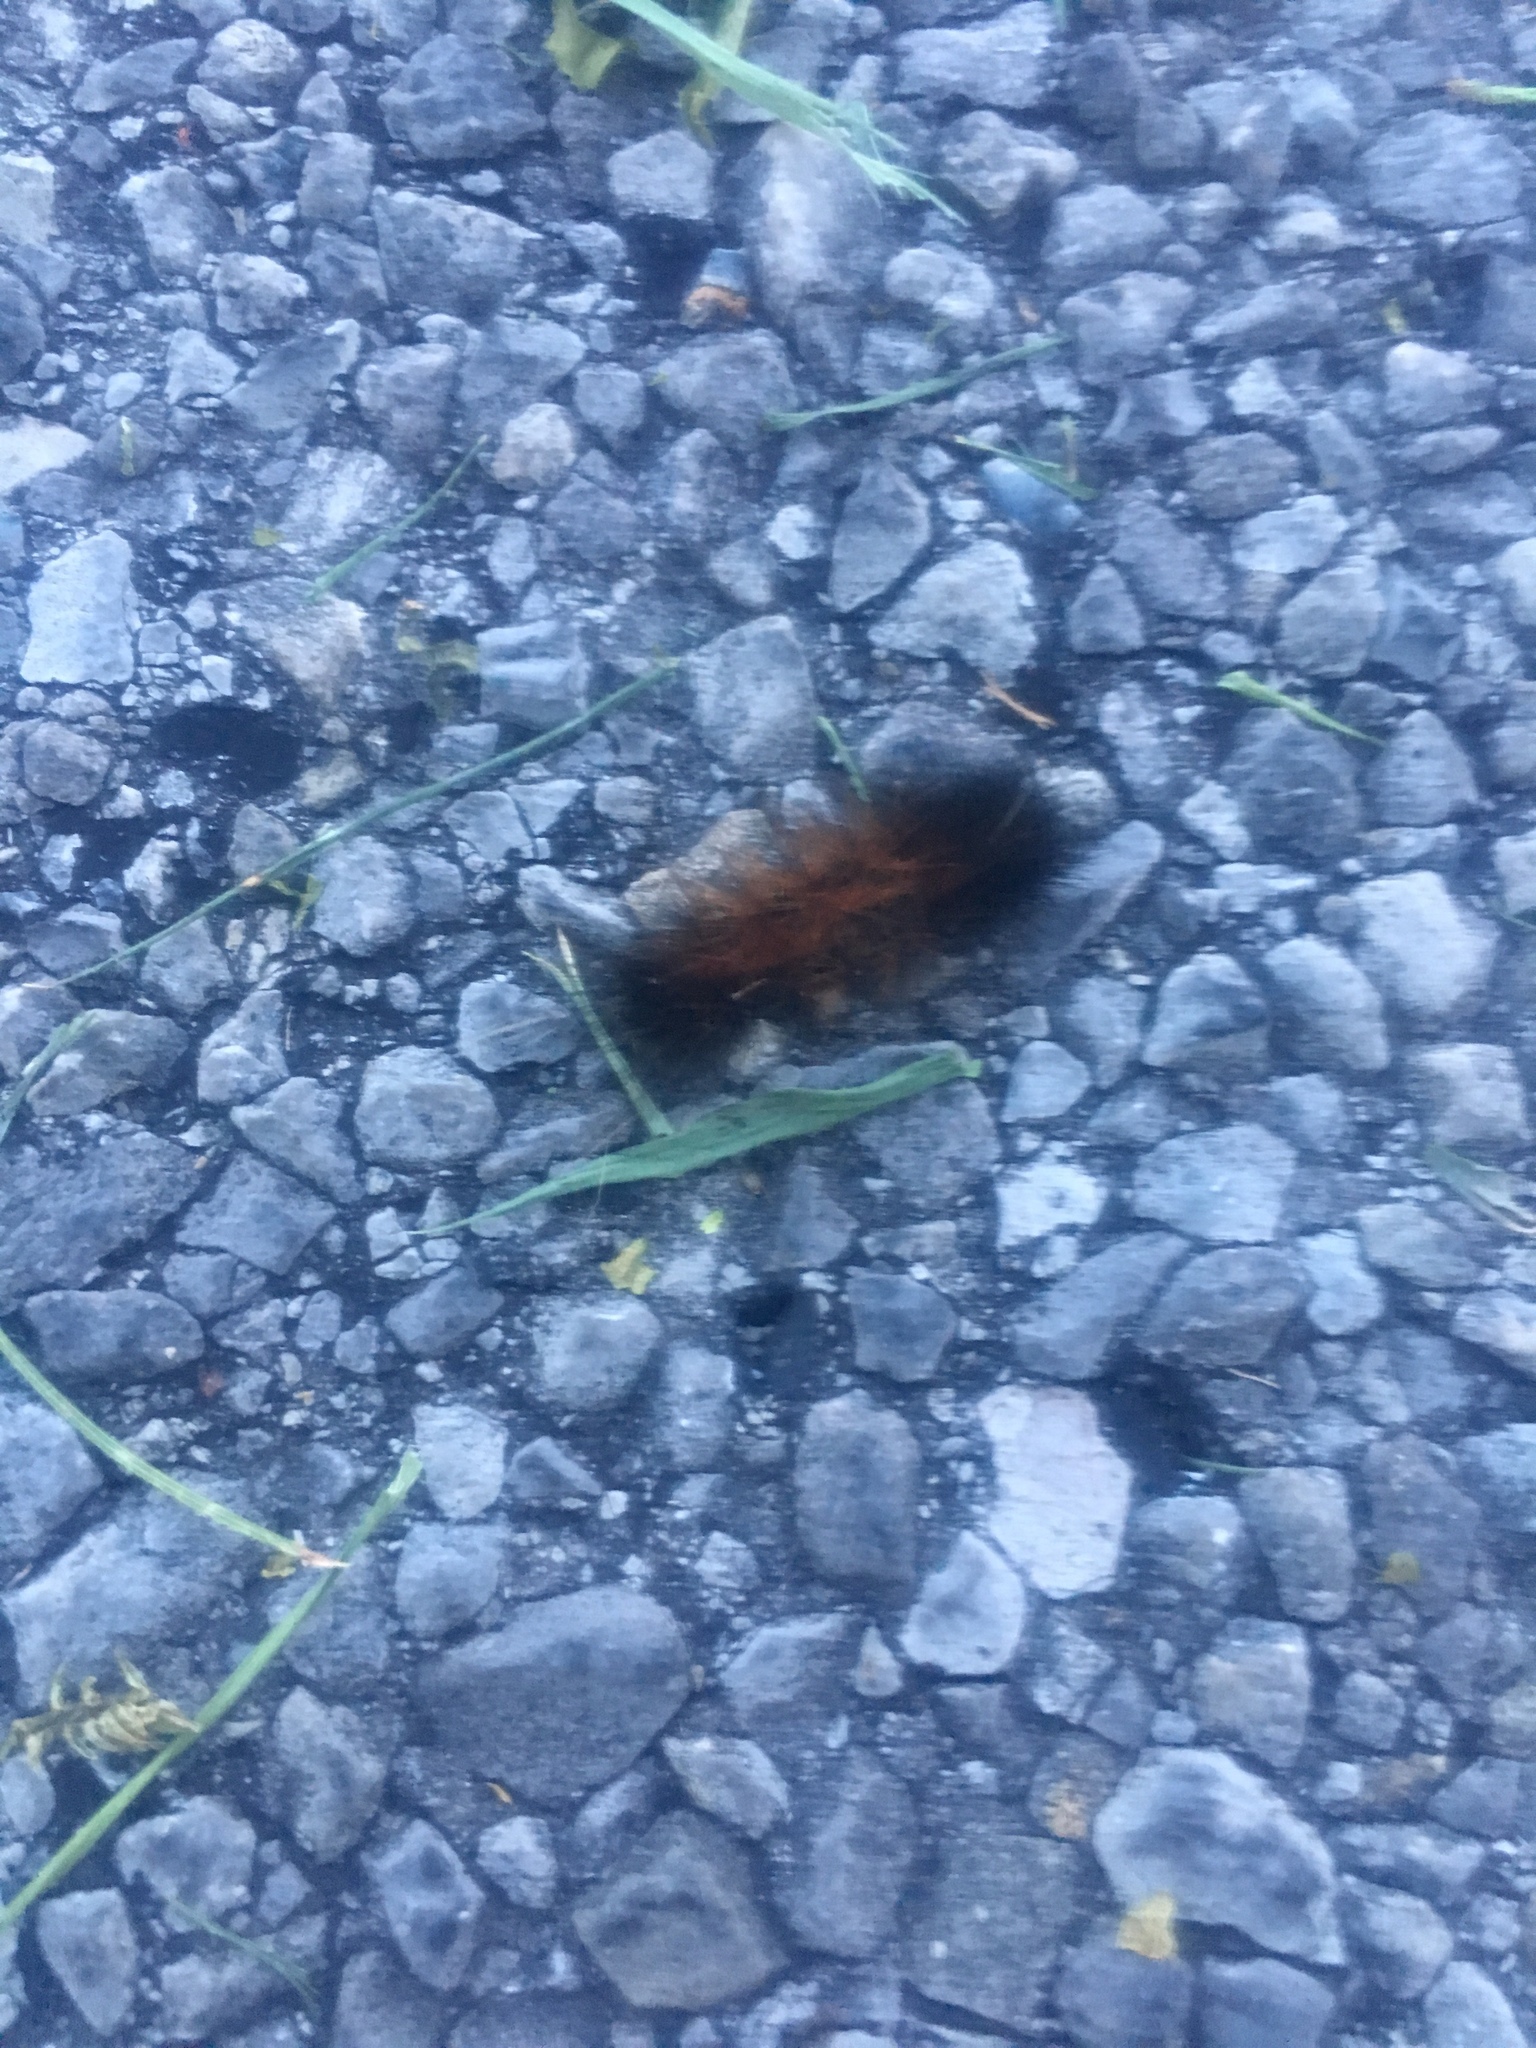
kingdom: Animalia
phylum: Arthropoda
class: Insecta
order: Lepidoptera
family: Erebidae
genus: Pyrrharctia
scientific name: Pyrrharctia isabella
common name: Isabella tiger moth
